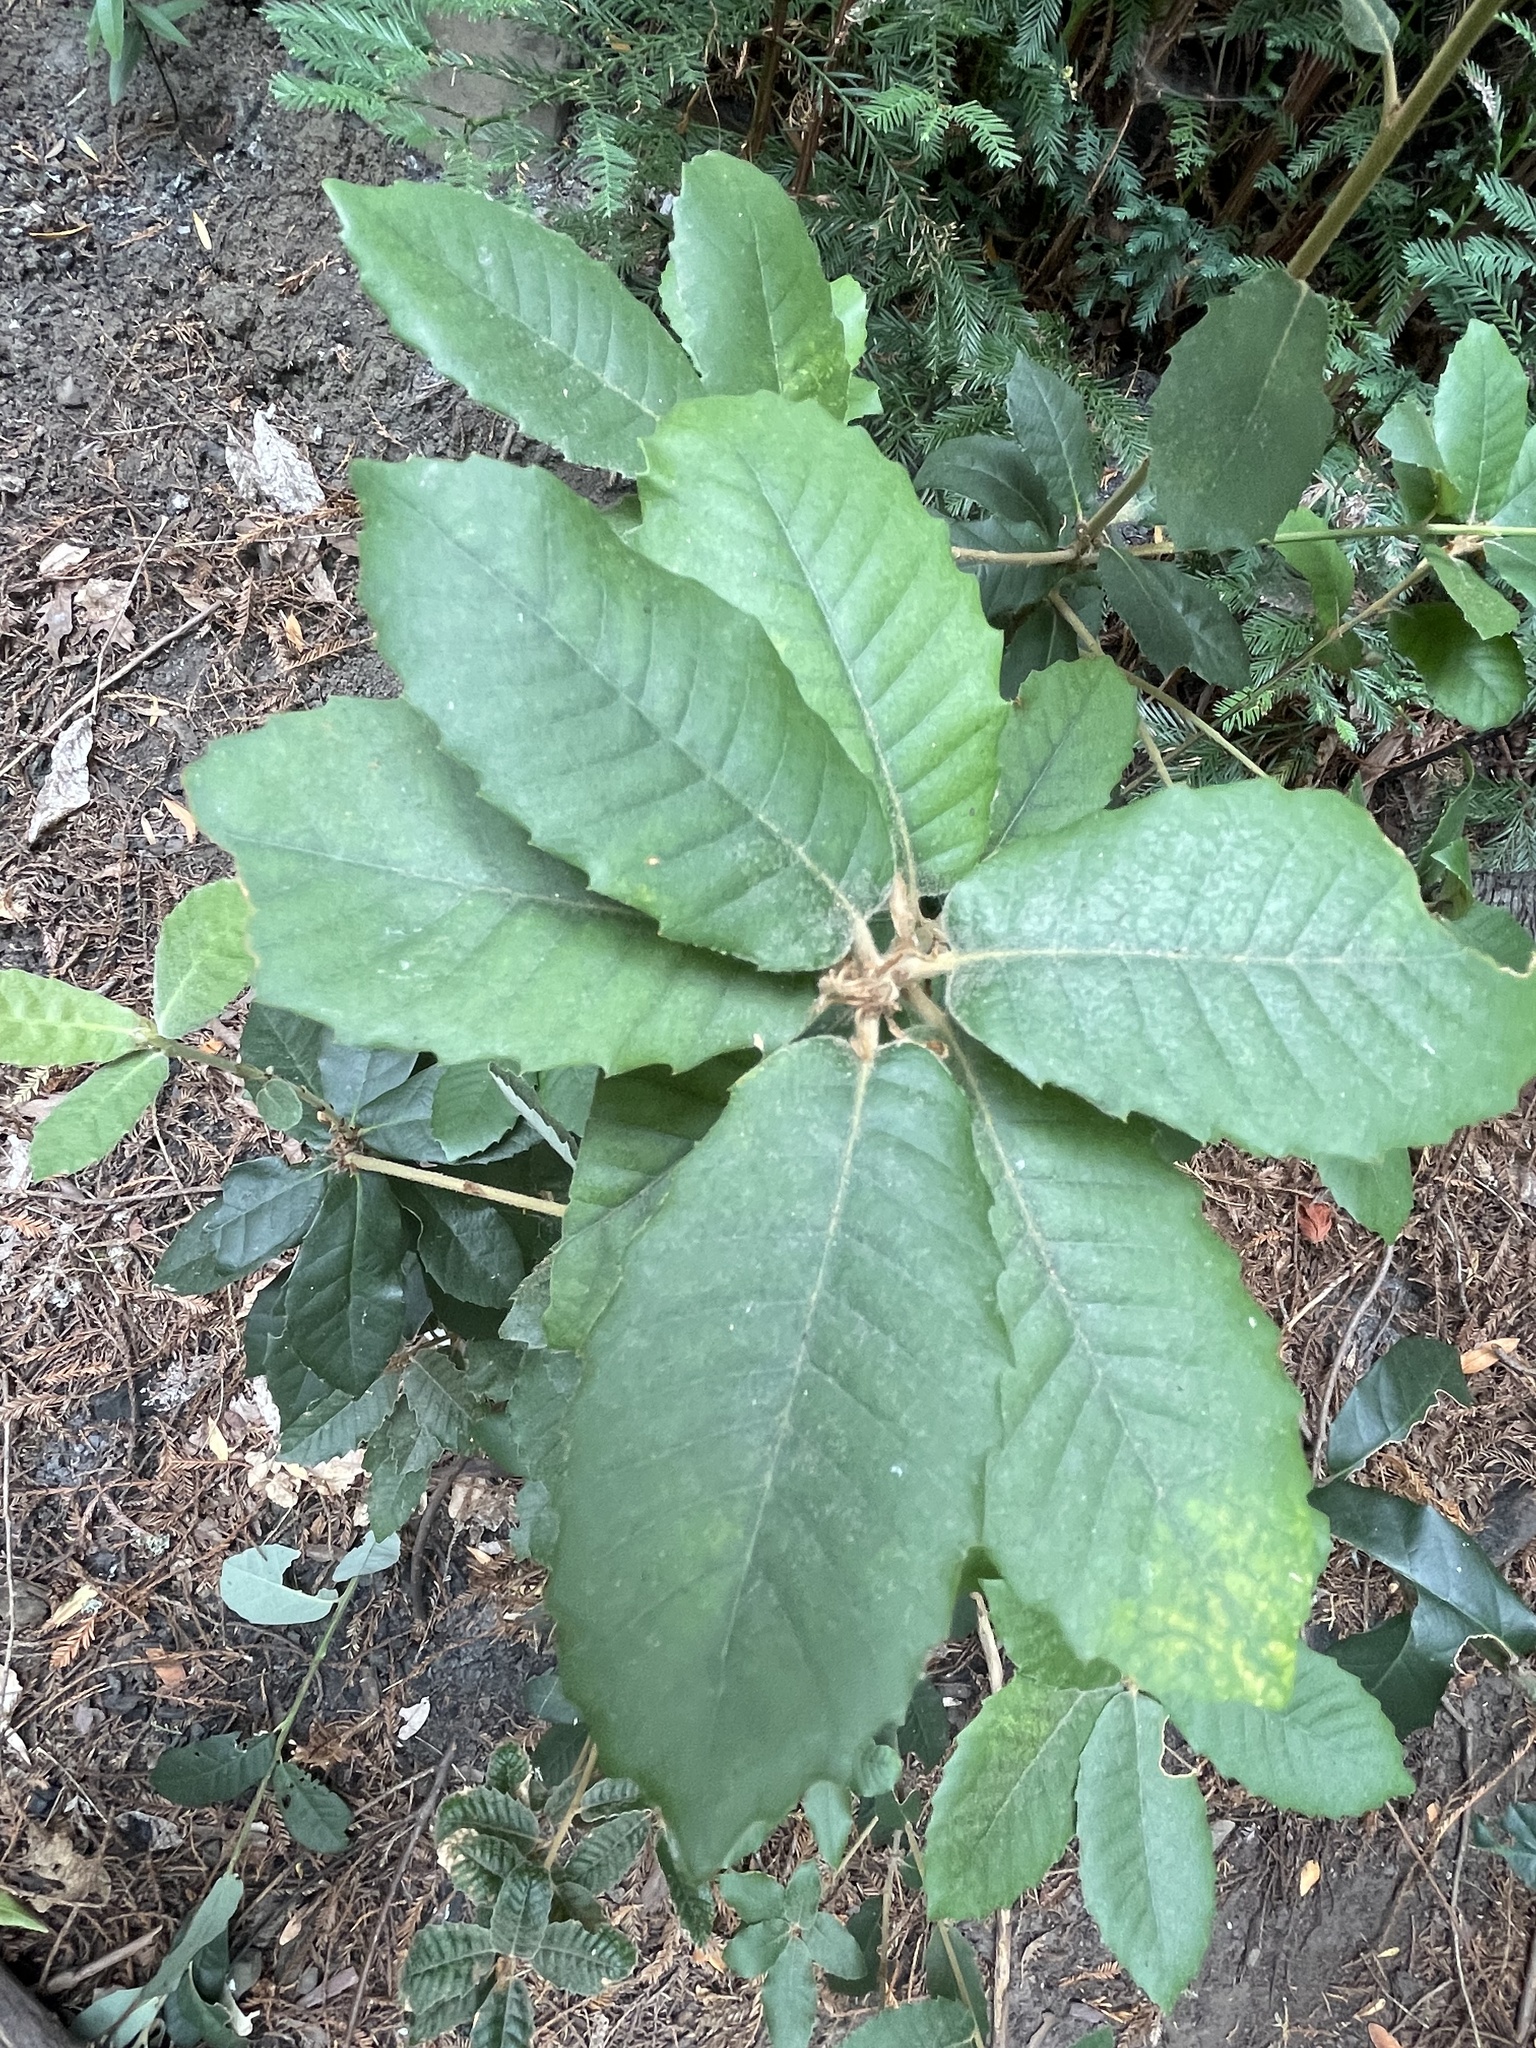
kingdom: Plantae
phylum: Tracheophyta
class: Magnoliopsida
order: Fagales
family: Fagaceae
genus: Notholithocarpus
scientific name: Notholithocarpus densiflorus
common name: Tan bark oak
